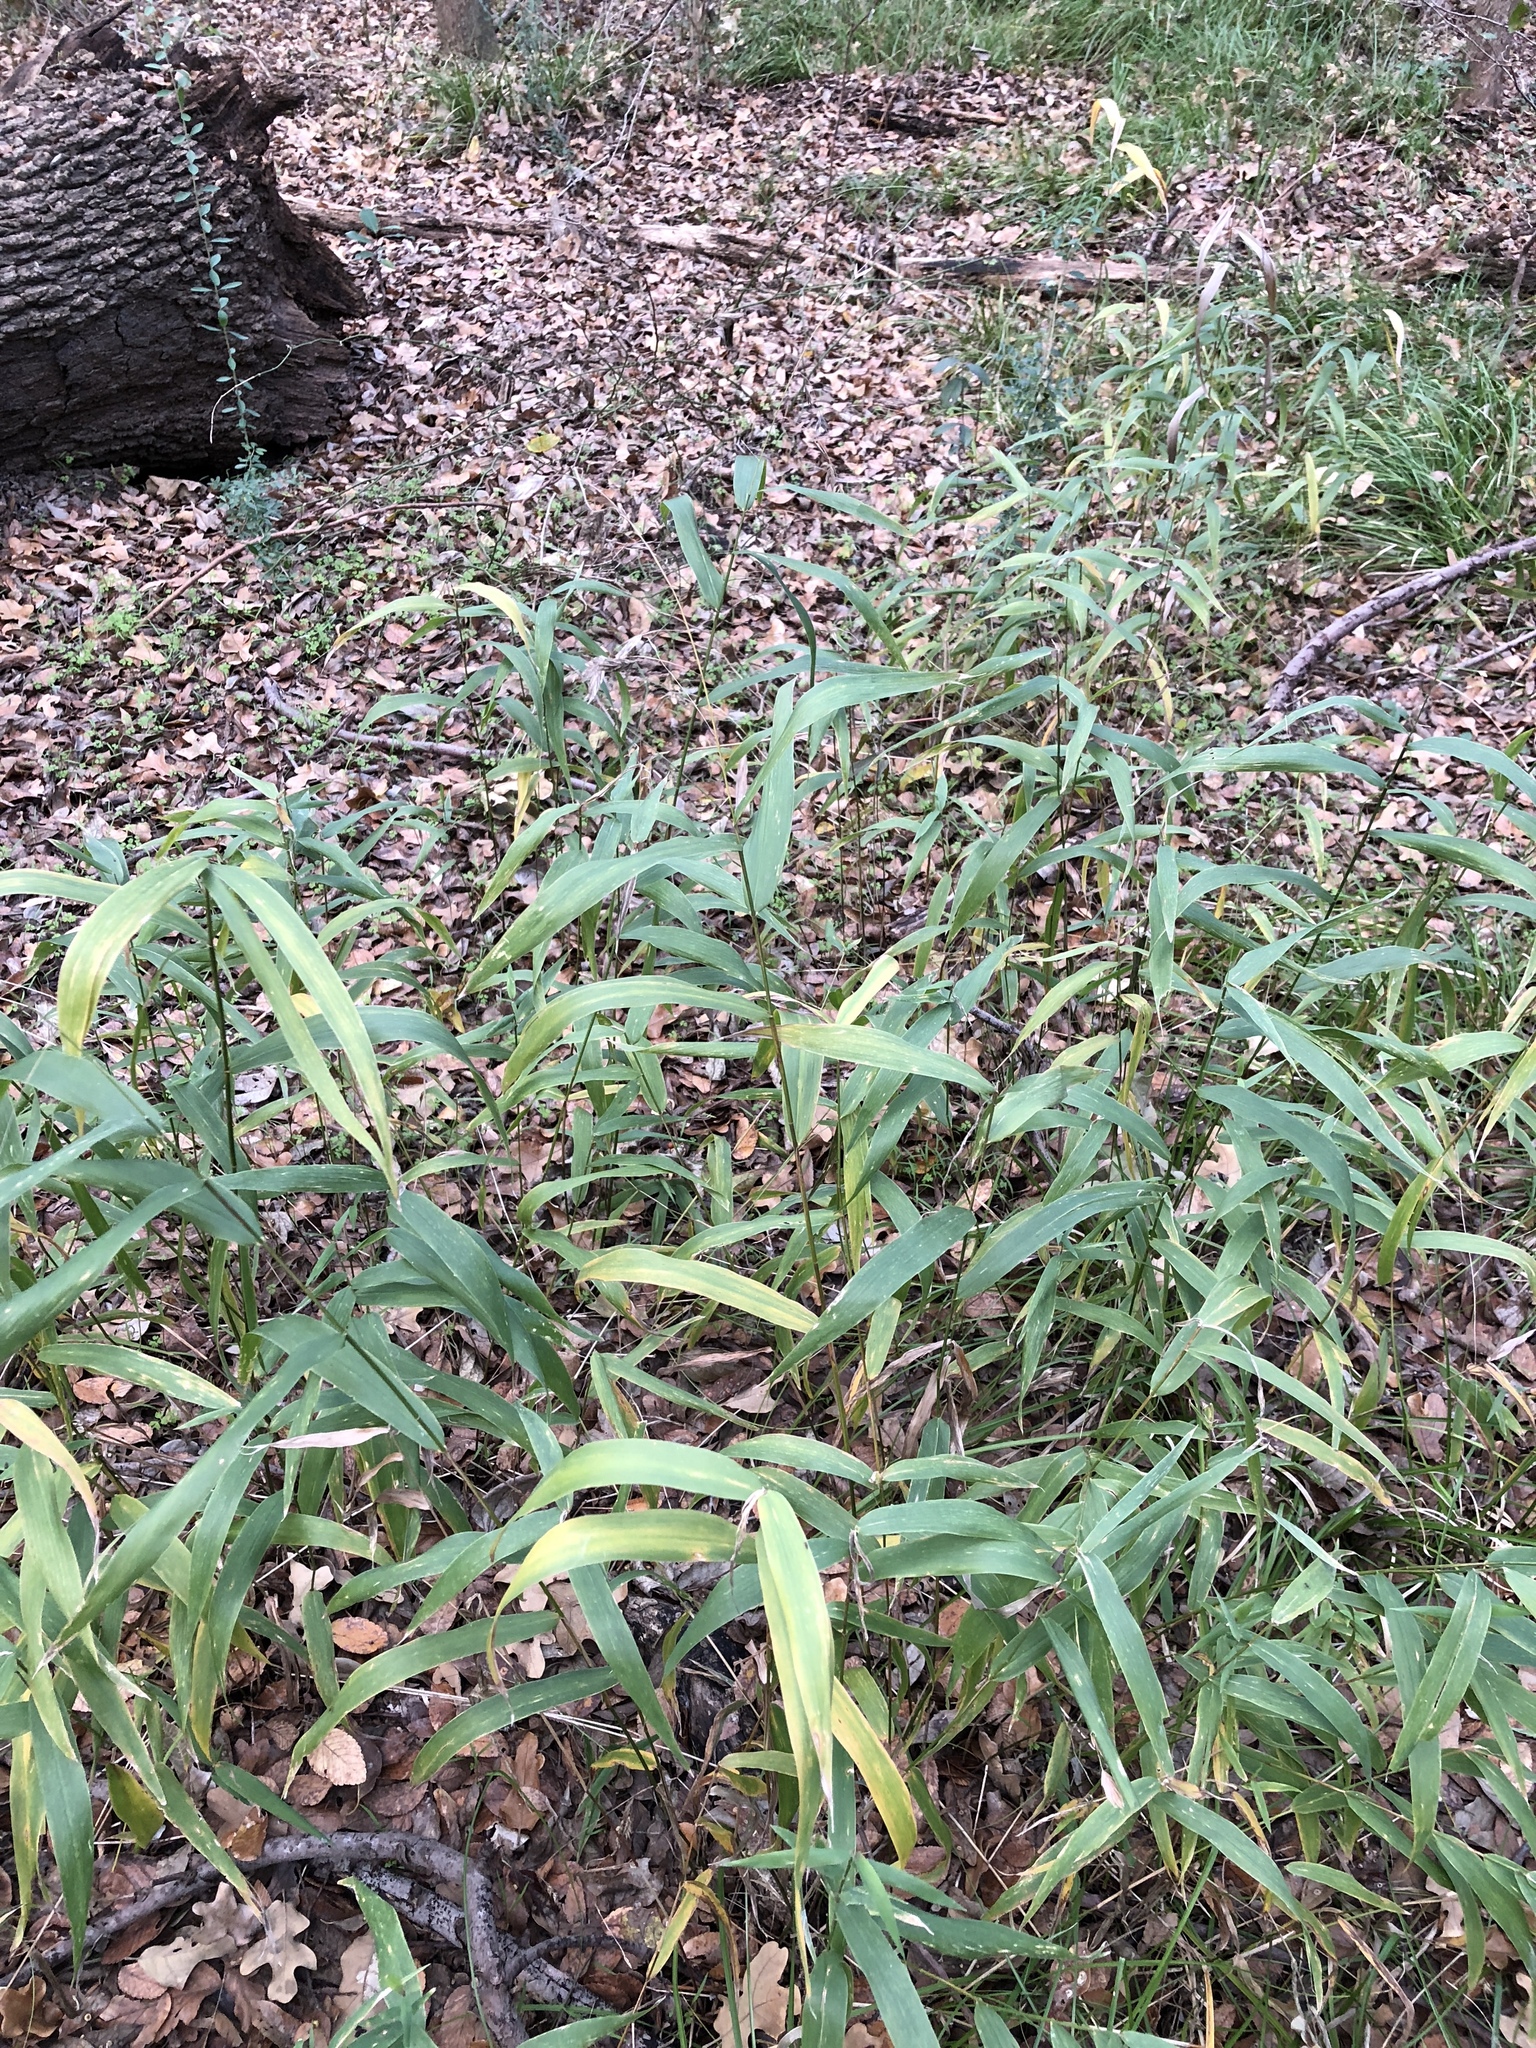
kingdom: Plantae
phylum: Tracheophyta
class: Liliopsida
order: Poales
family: Poaceae
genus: Chasmanthium
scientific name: Chasmanthium latifolium
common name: Broad-leaved chasmanthium
